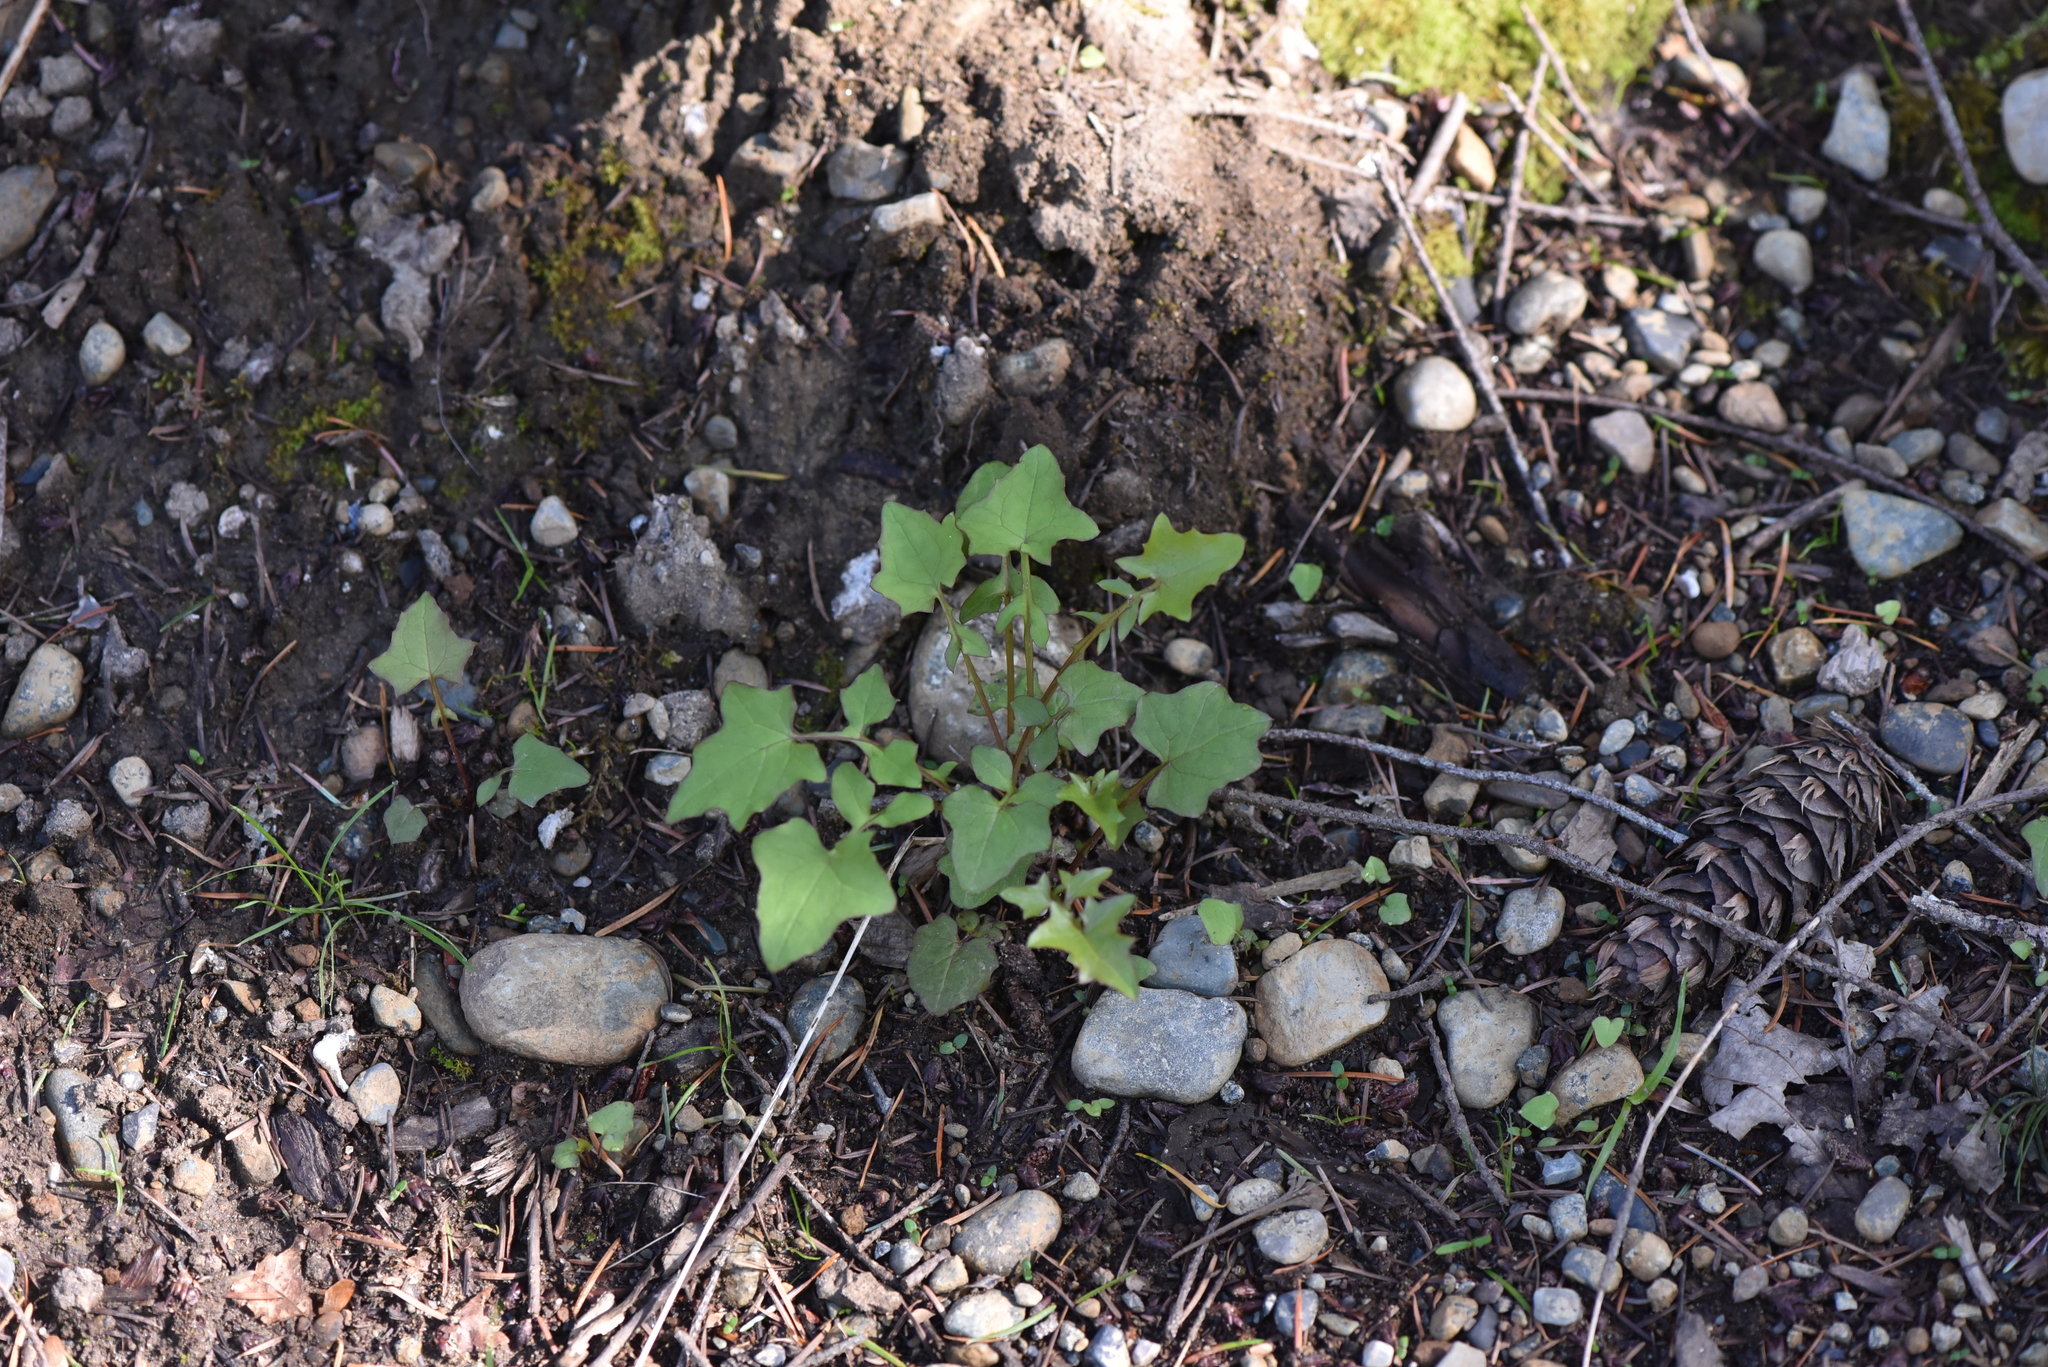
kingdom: Plantae
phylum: Tracheophyta
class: Magnoliopsida
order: Asterales
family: Asteraceae
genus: Mycelis
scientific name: Mycelis muralis
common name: Wall lettuce
